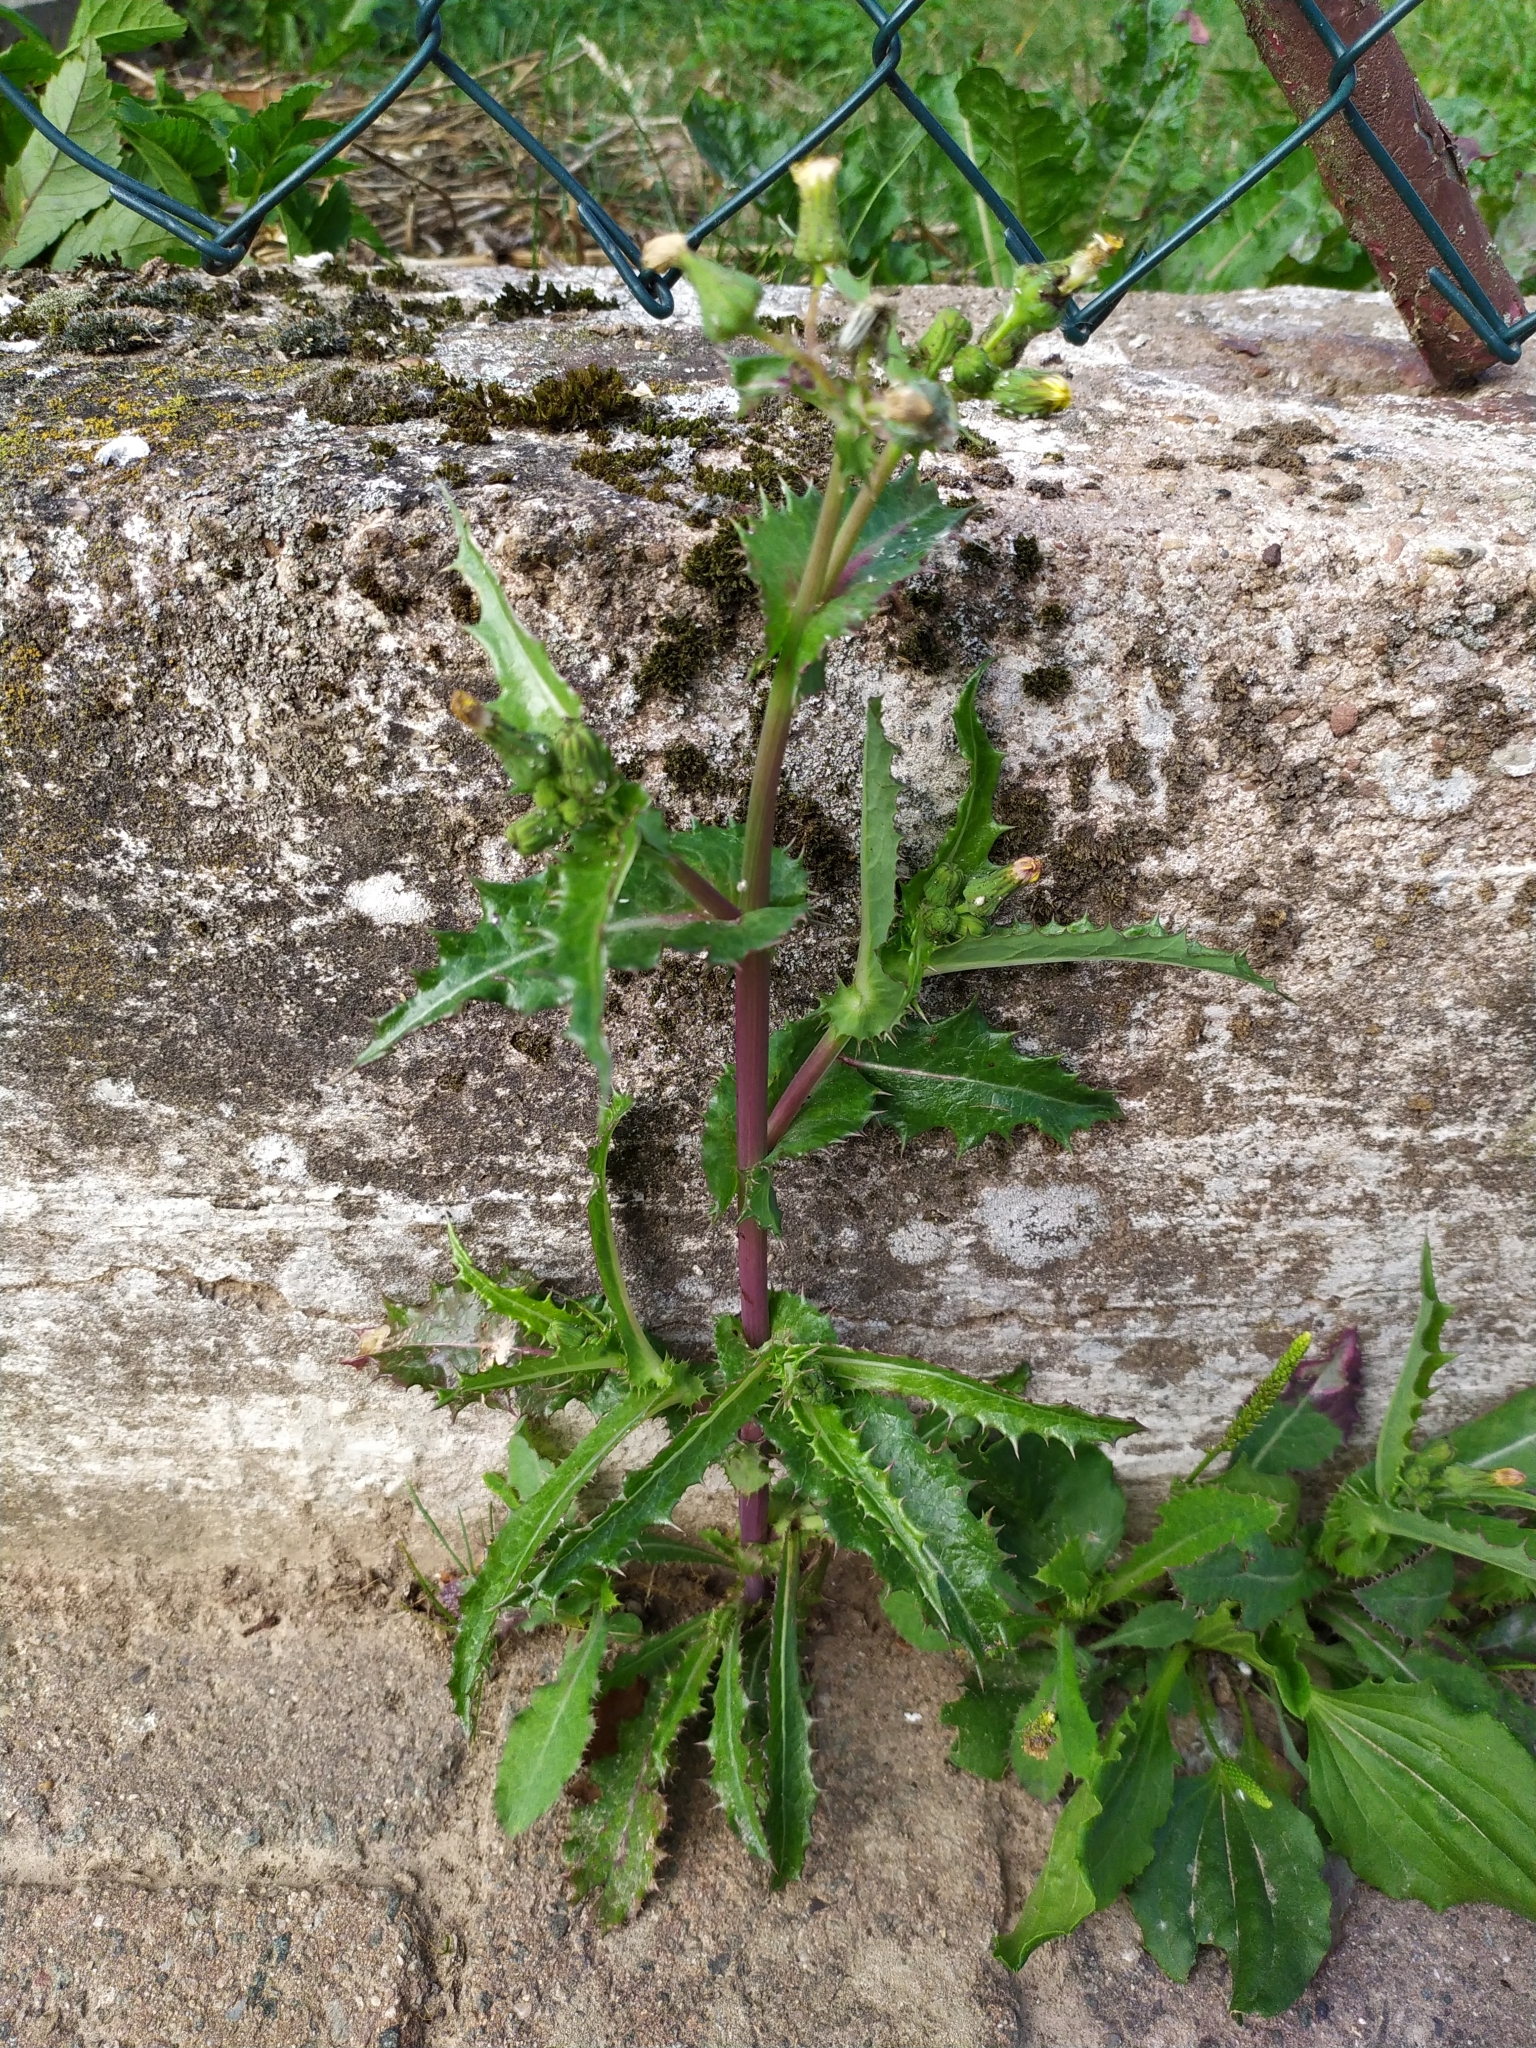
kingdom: Plantae
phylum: Tracheophyta
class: Magnoliopsida
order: Asterales
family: Asteraceae
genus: Sonchus
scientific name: Sonchus asper
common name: Prickly sow-thistle
